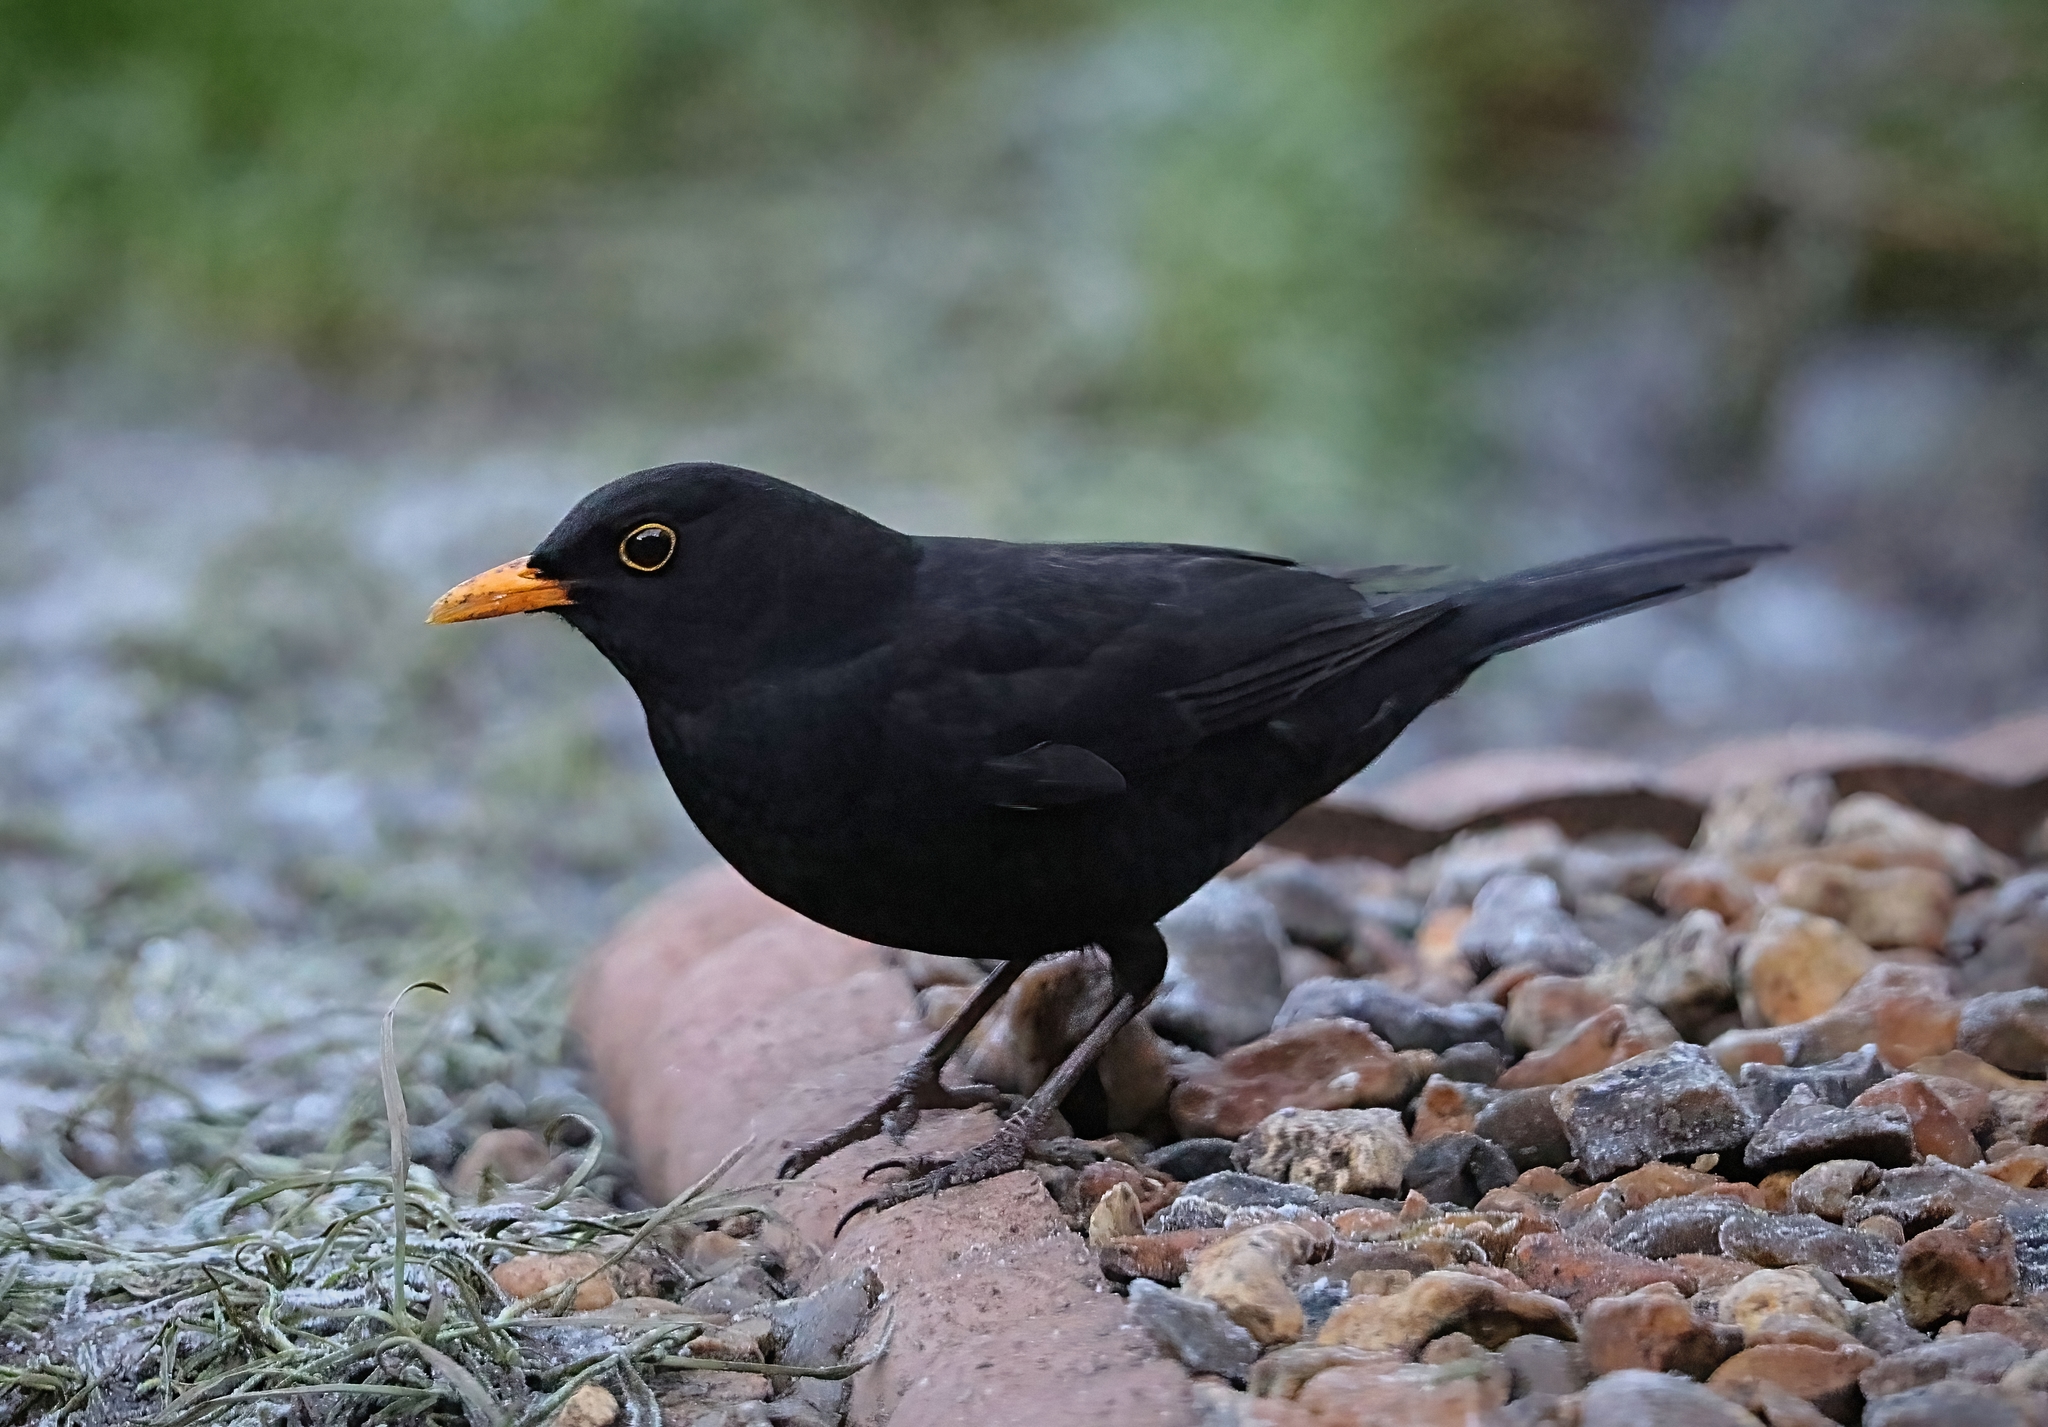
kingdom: Animalia
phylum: Chordata
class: Aves
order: Passeriformes
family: Turdidae
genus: Turdus
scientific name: Turdus merula
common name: Common blackbird
